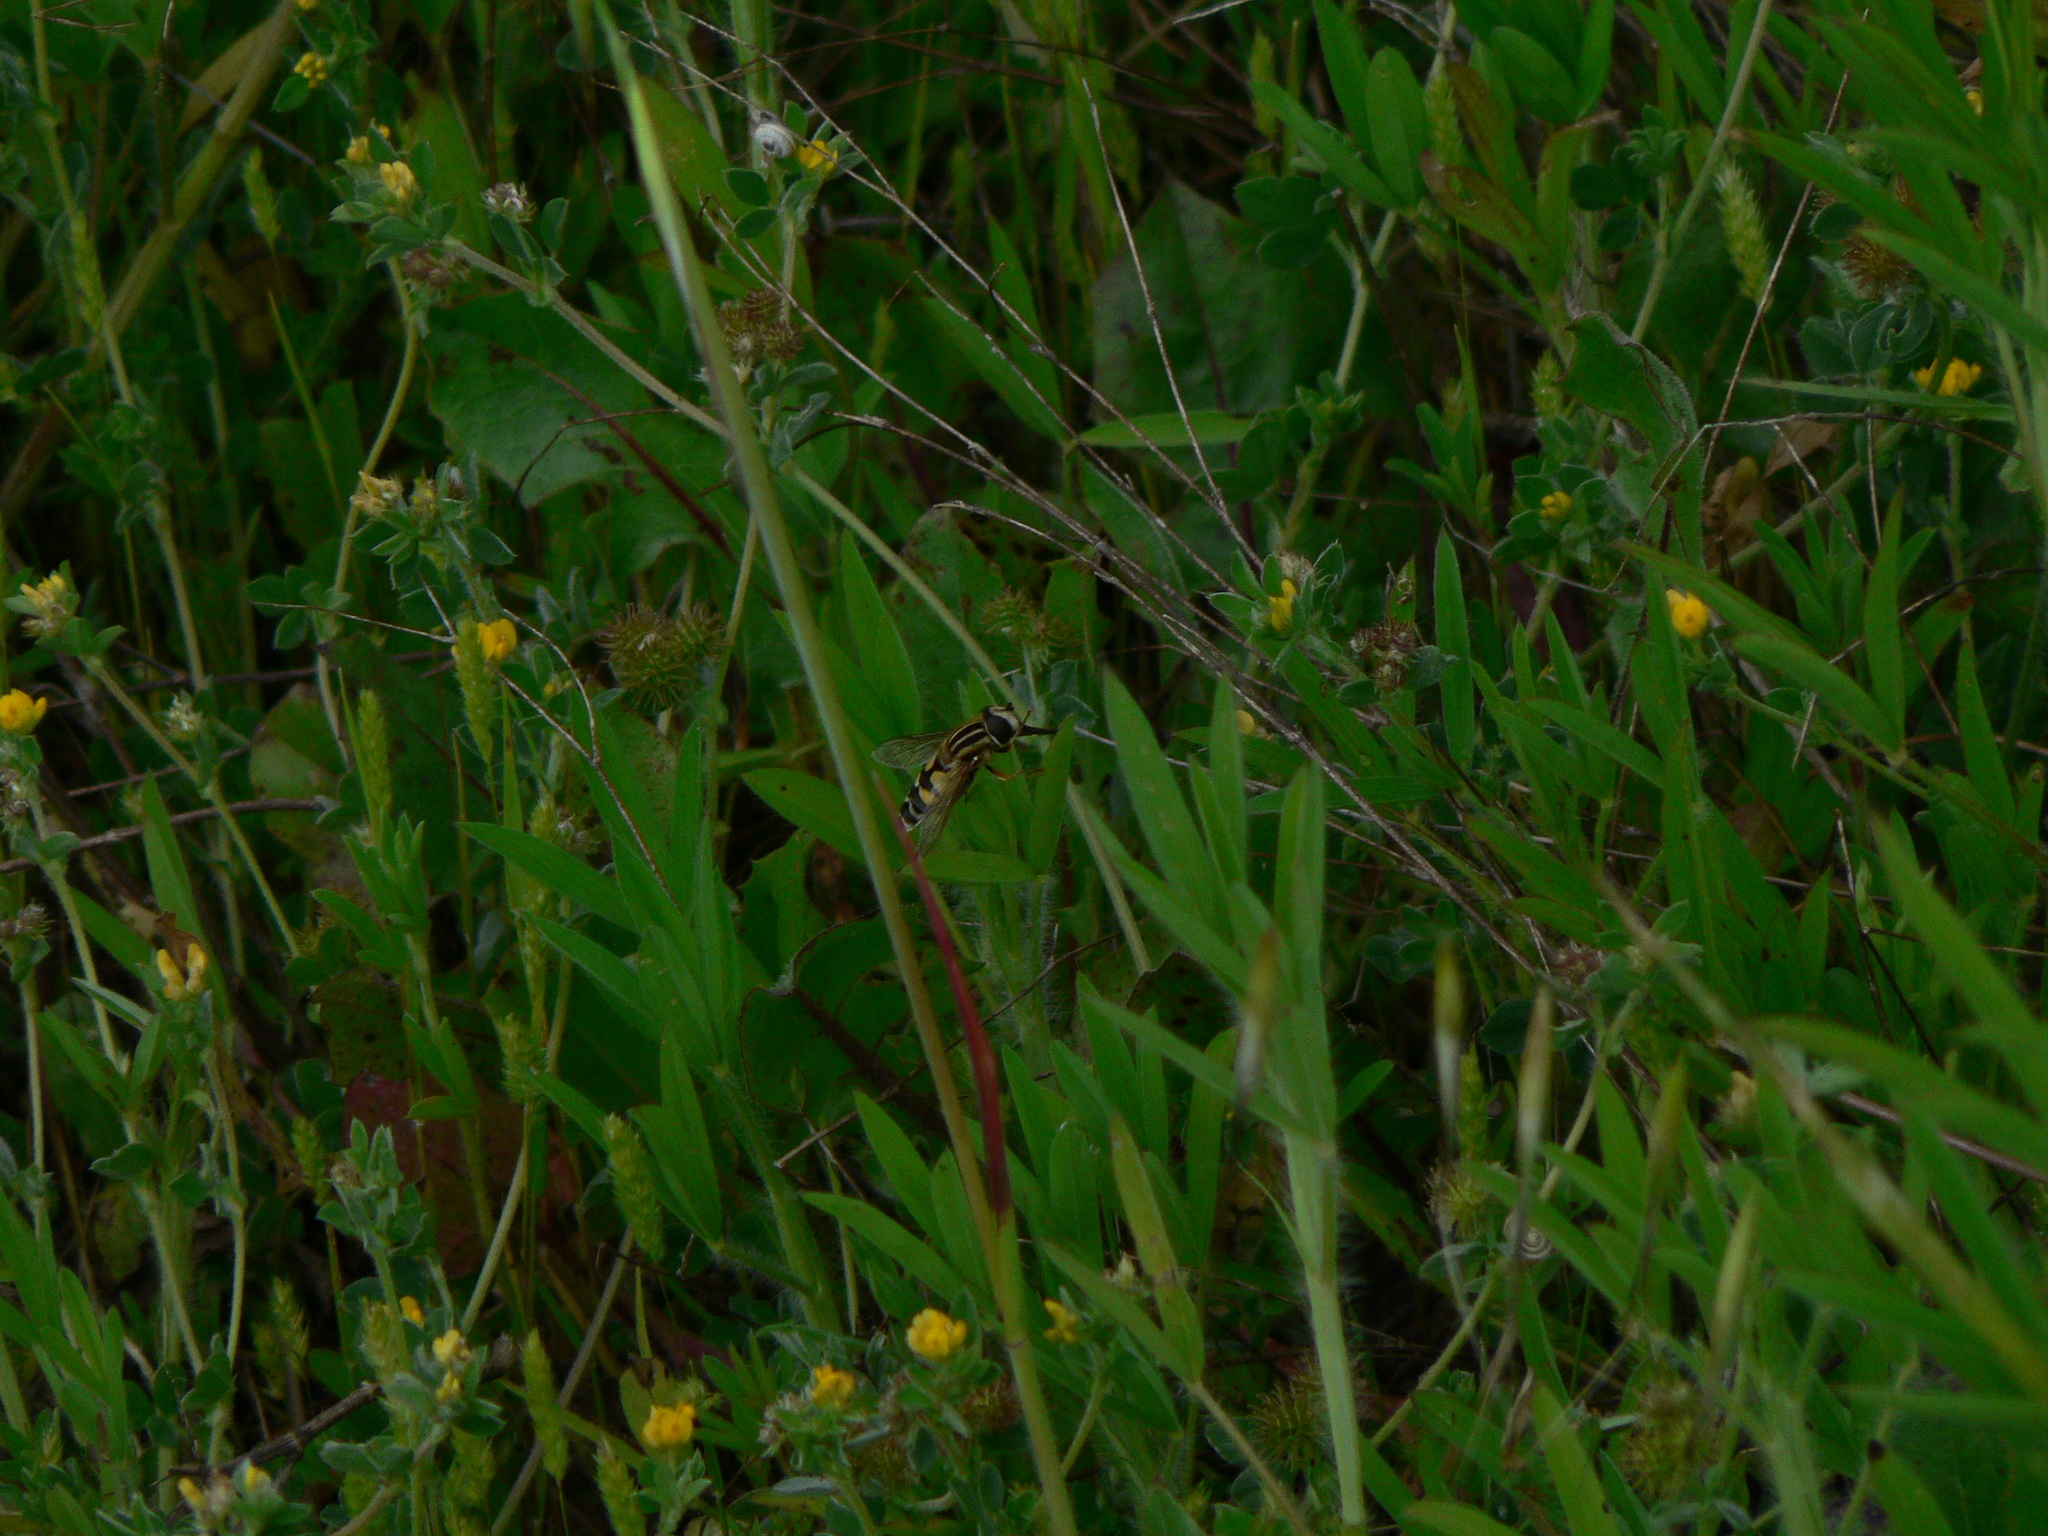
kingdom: Animalia
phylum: Arthropoda
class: Insecta
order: Diptera
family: Syrphidae
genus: Helophilus
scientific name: Helophilus trivittatus
